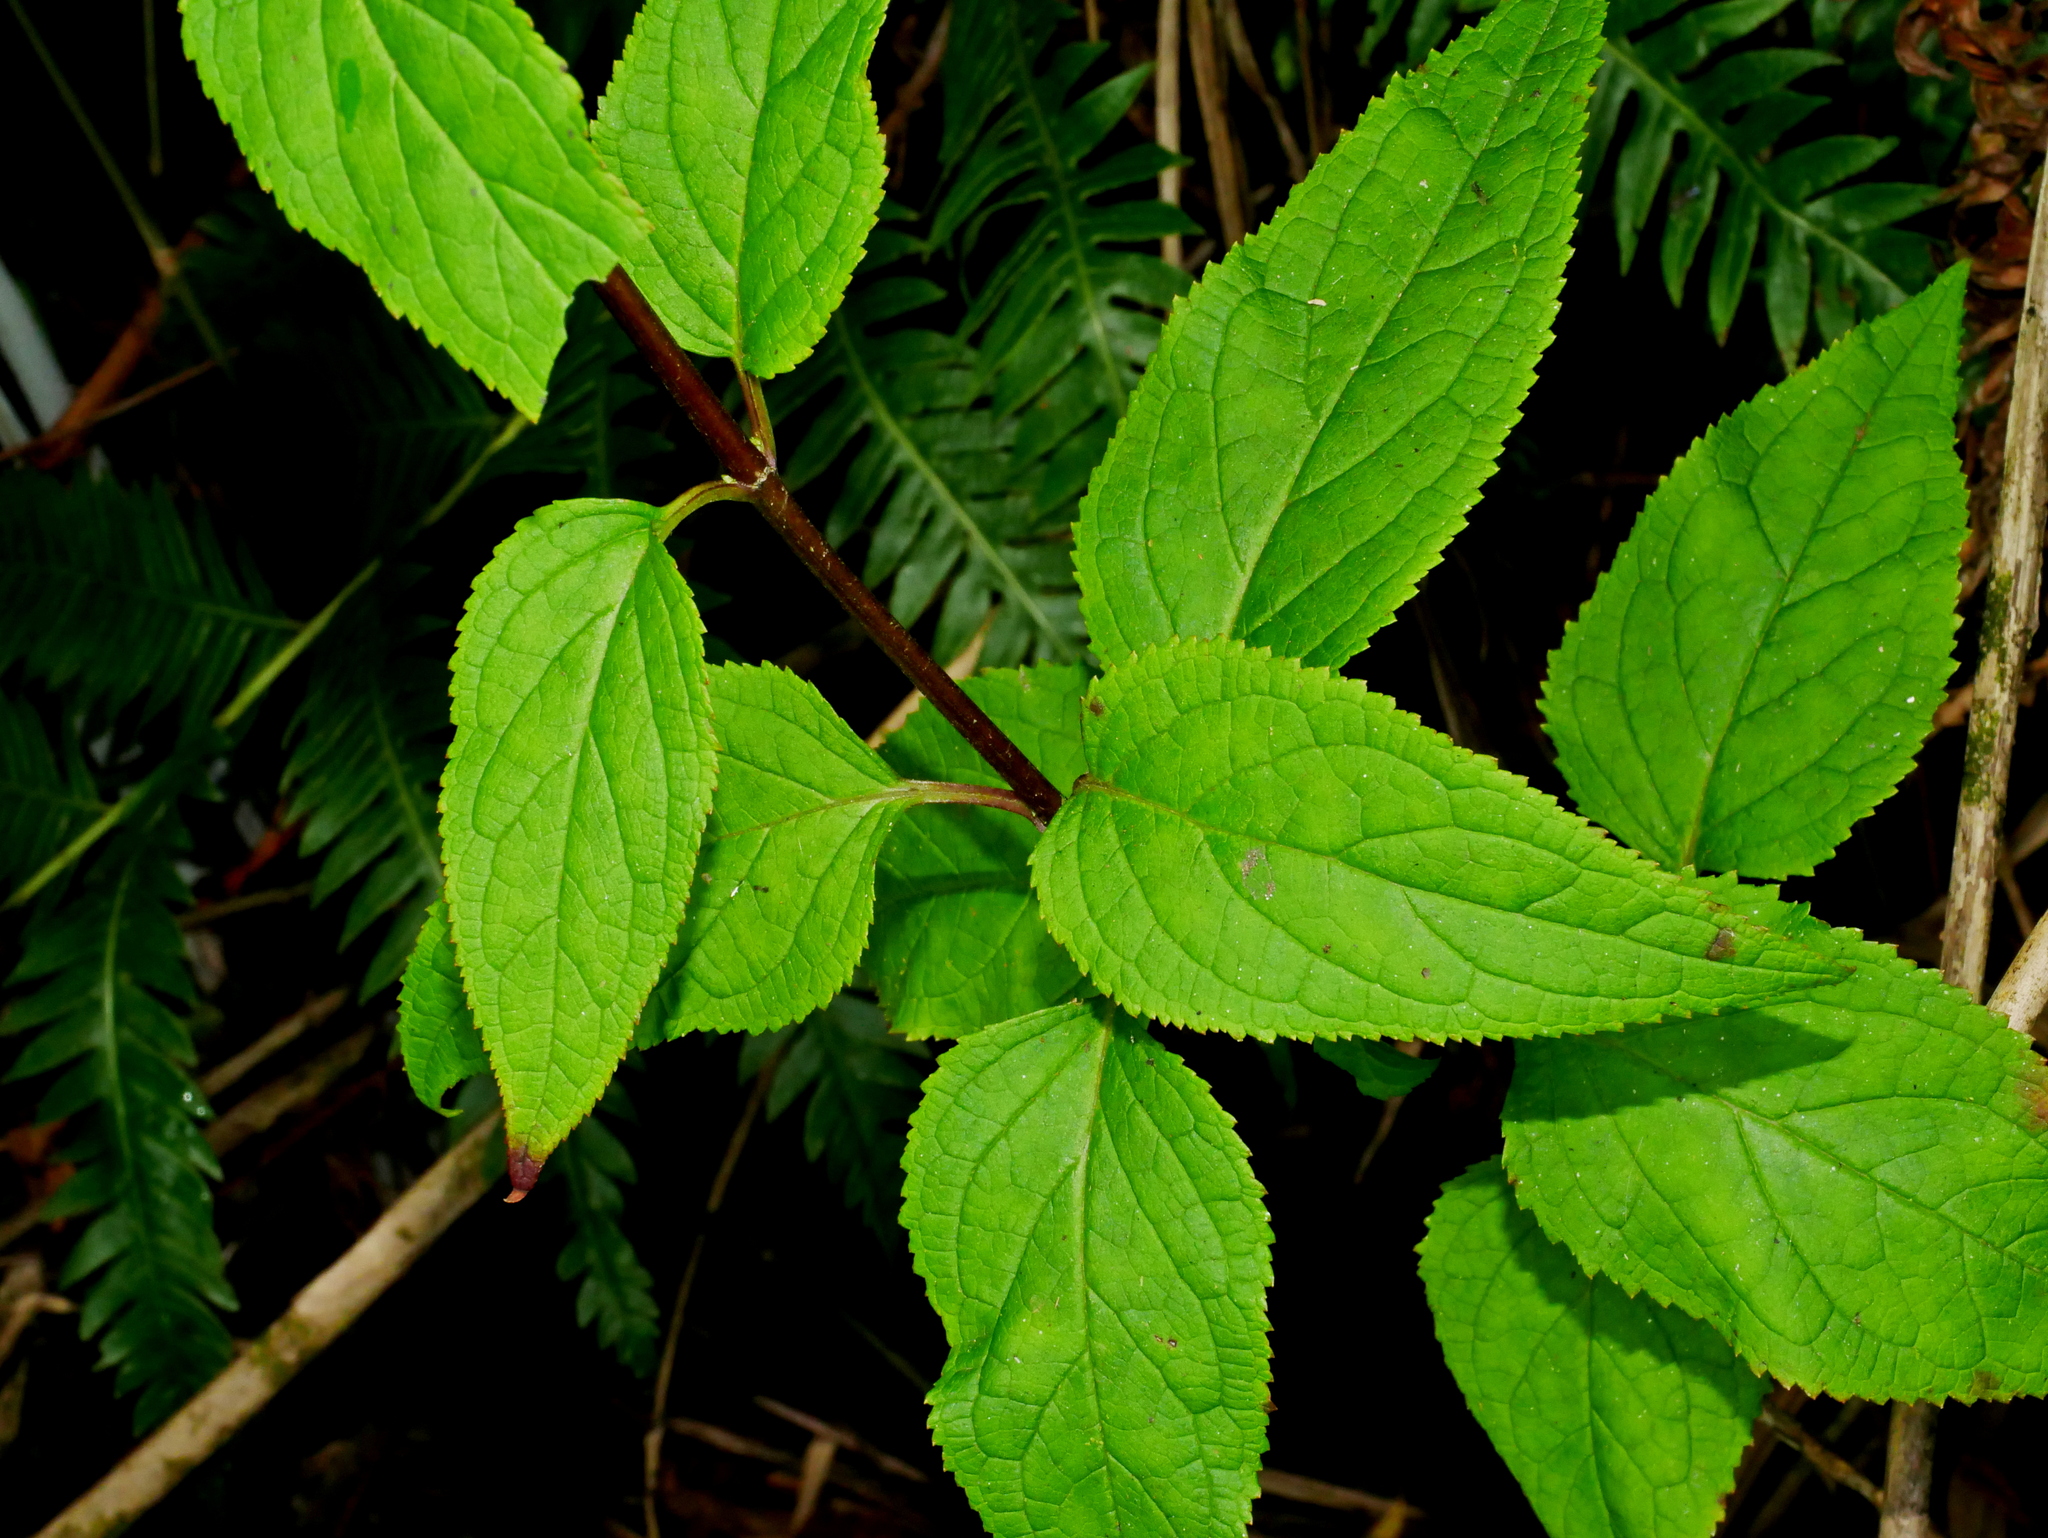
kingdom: Plantae
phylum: Tracheophyta
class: Magnoliopsida
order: Lamiales
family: Scrophulariaceae
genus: Scrophularia
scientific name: Scrophularia yoshimurae
